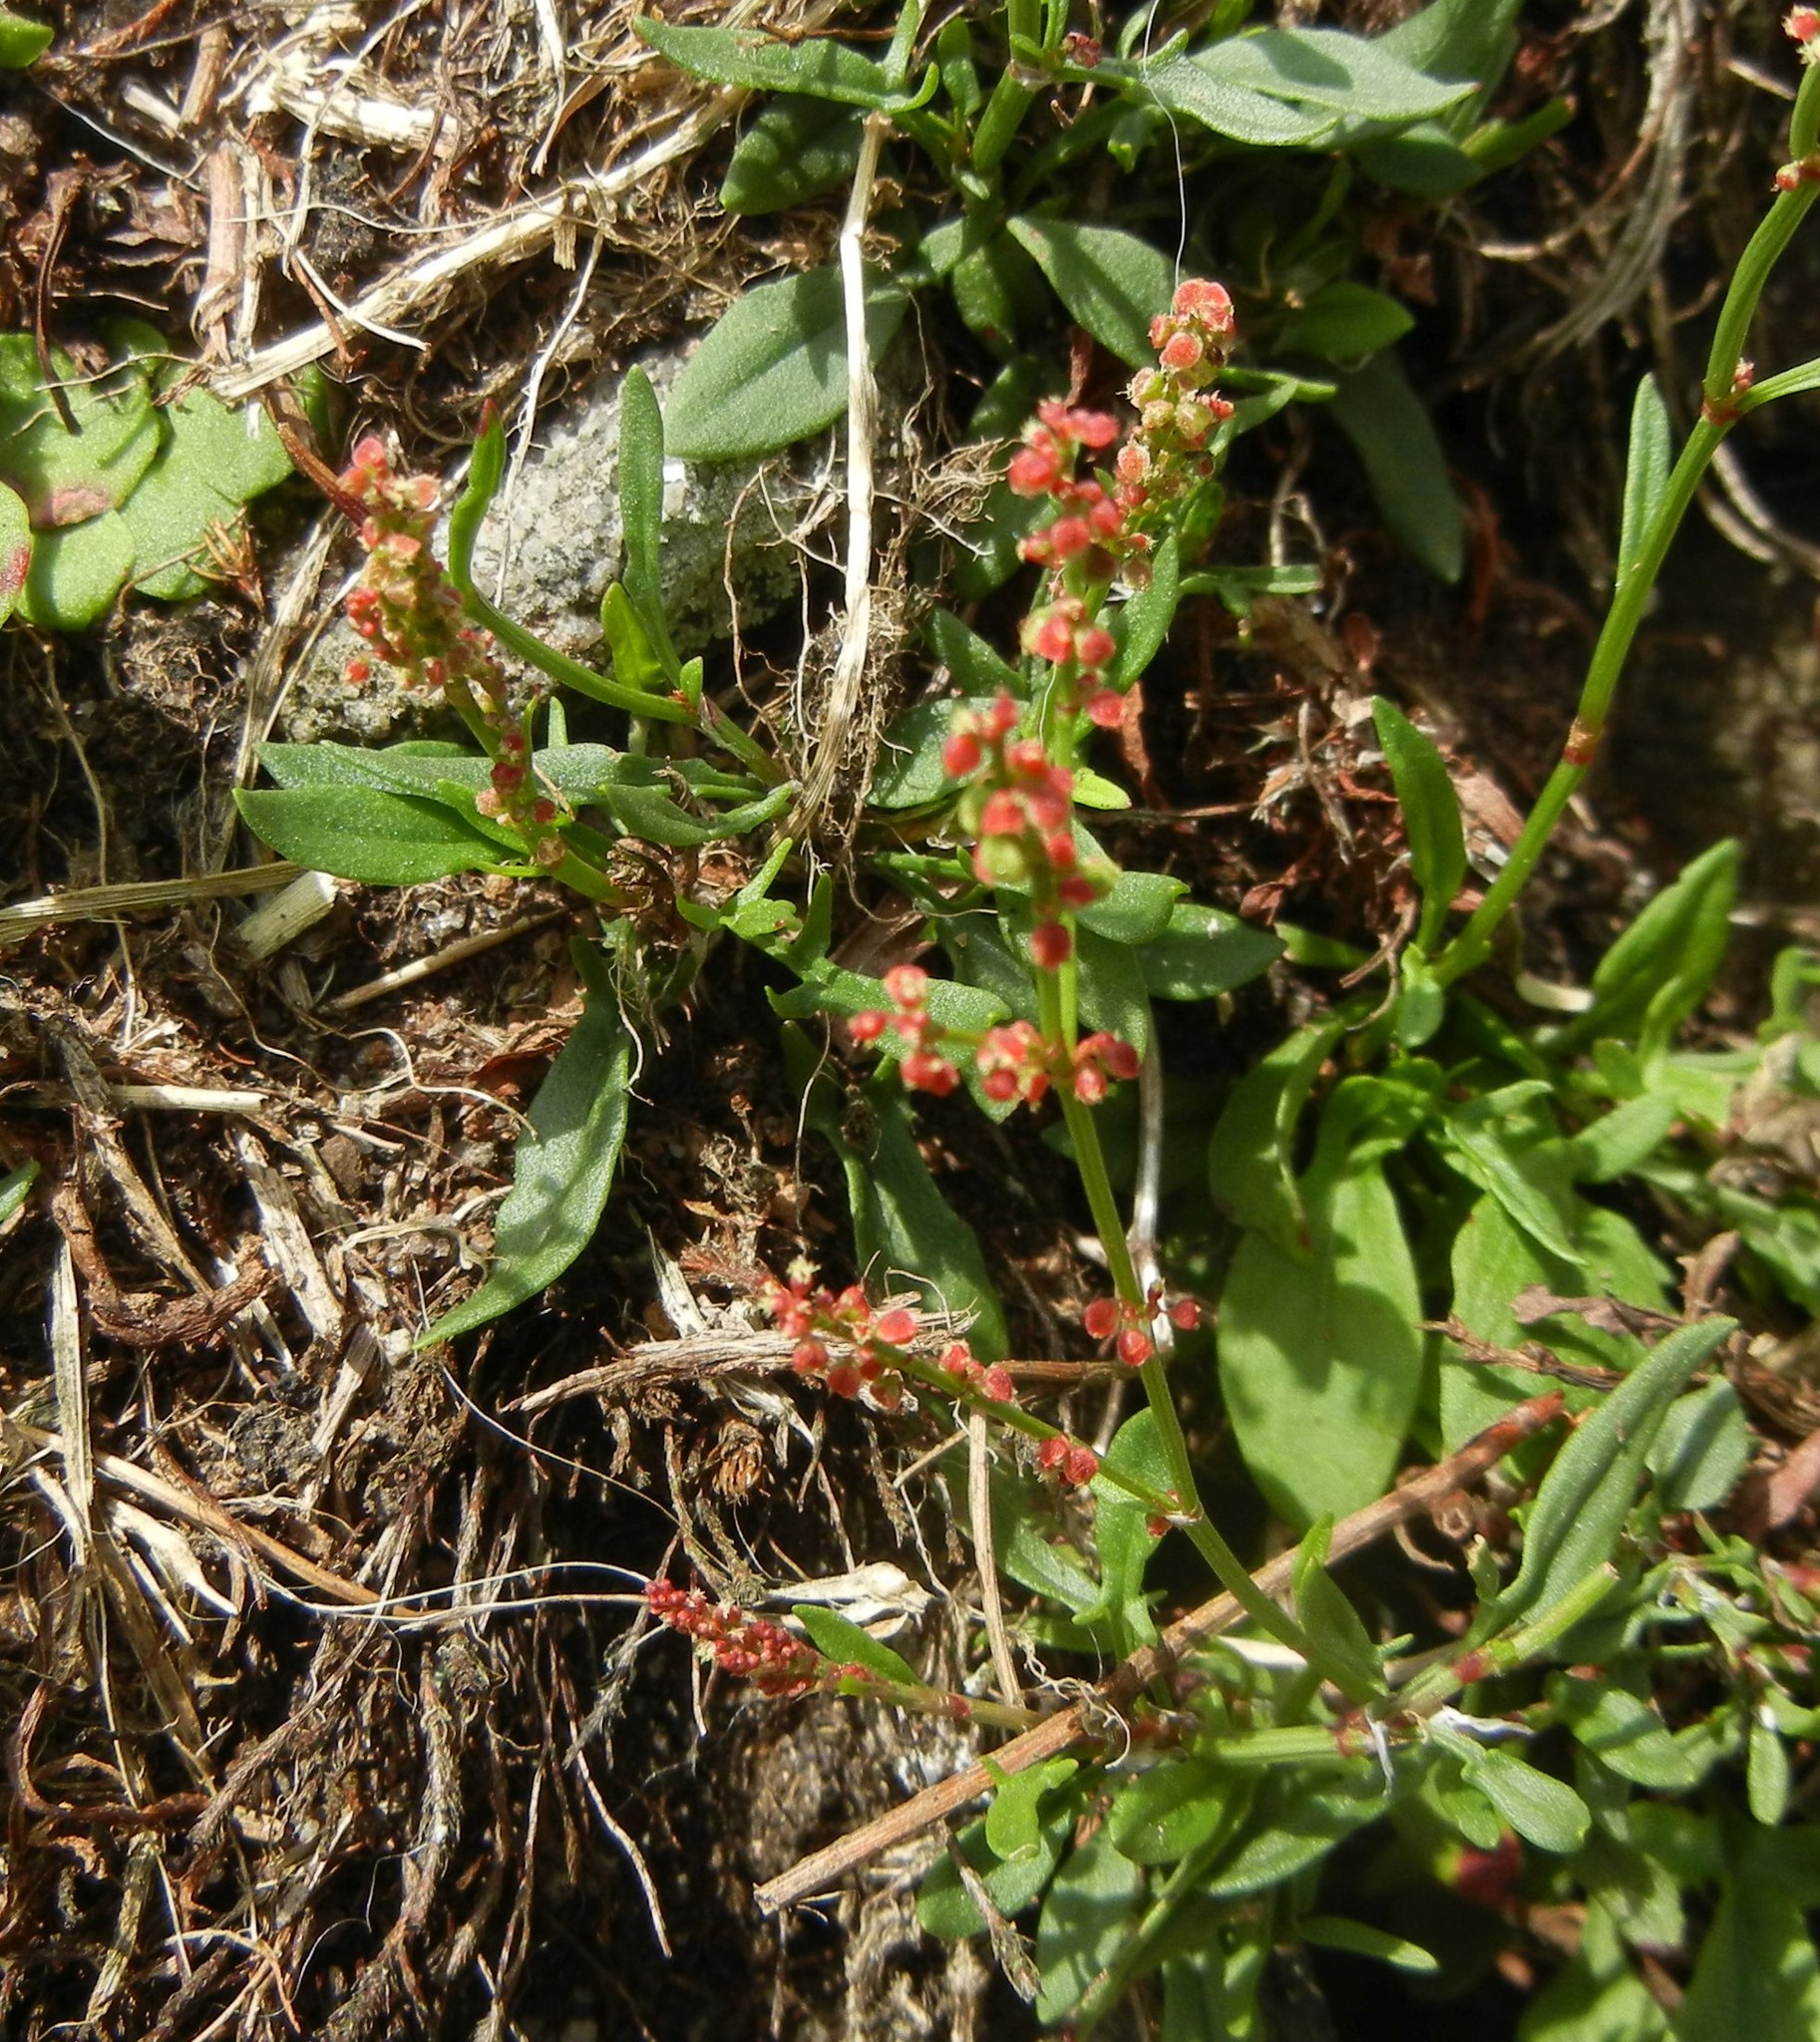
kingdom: Plantae
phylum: Tracheophyta
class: Magnoliopsida
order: Caryophyllales
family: Polygonaceae
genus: Rumex
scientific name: Rumex acetosella
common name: Common sheep sorrel
